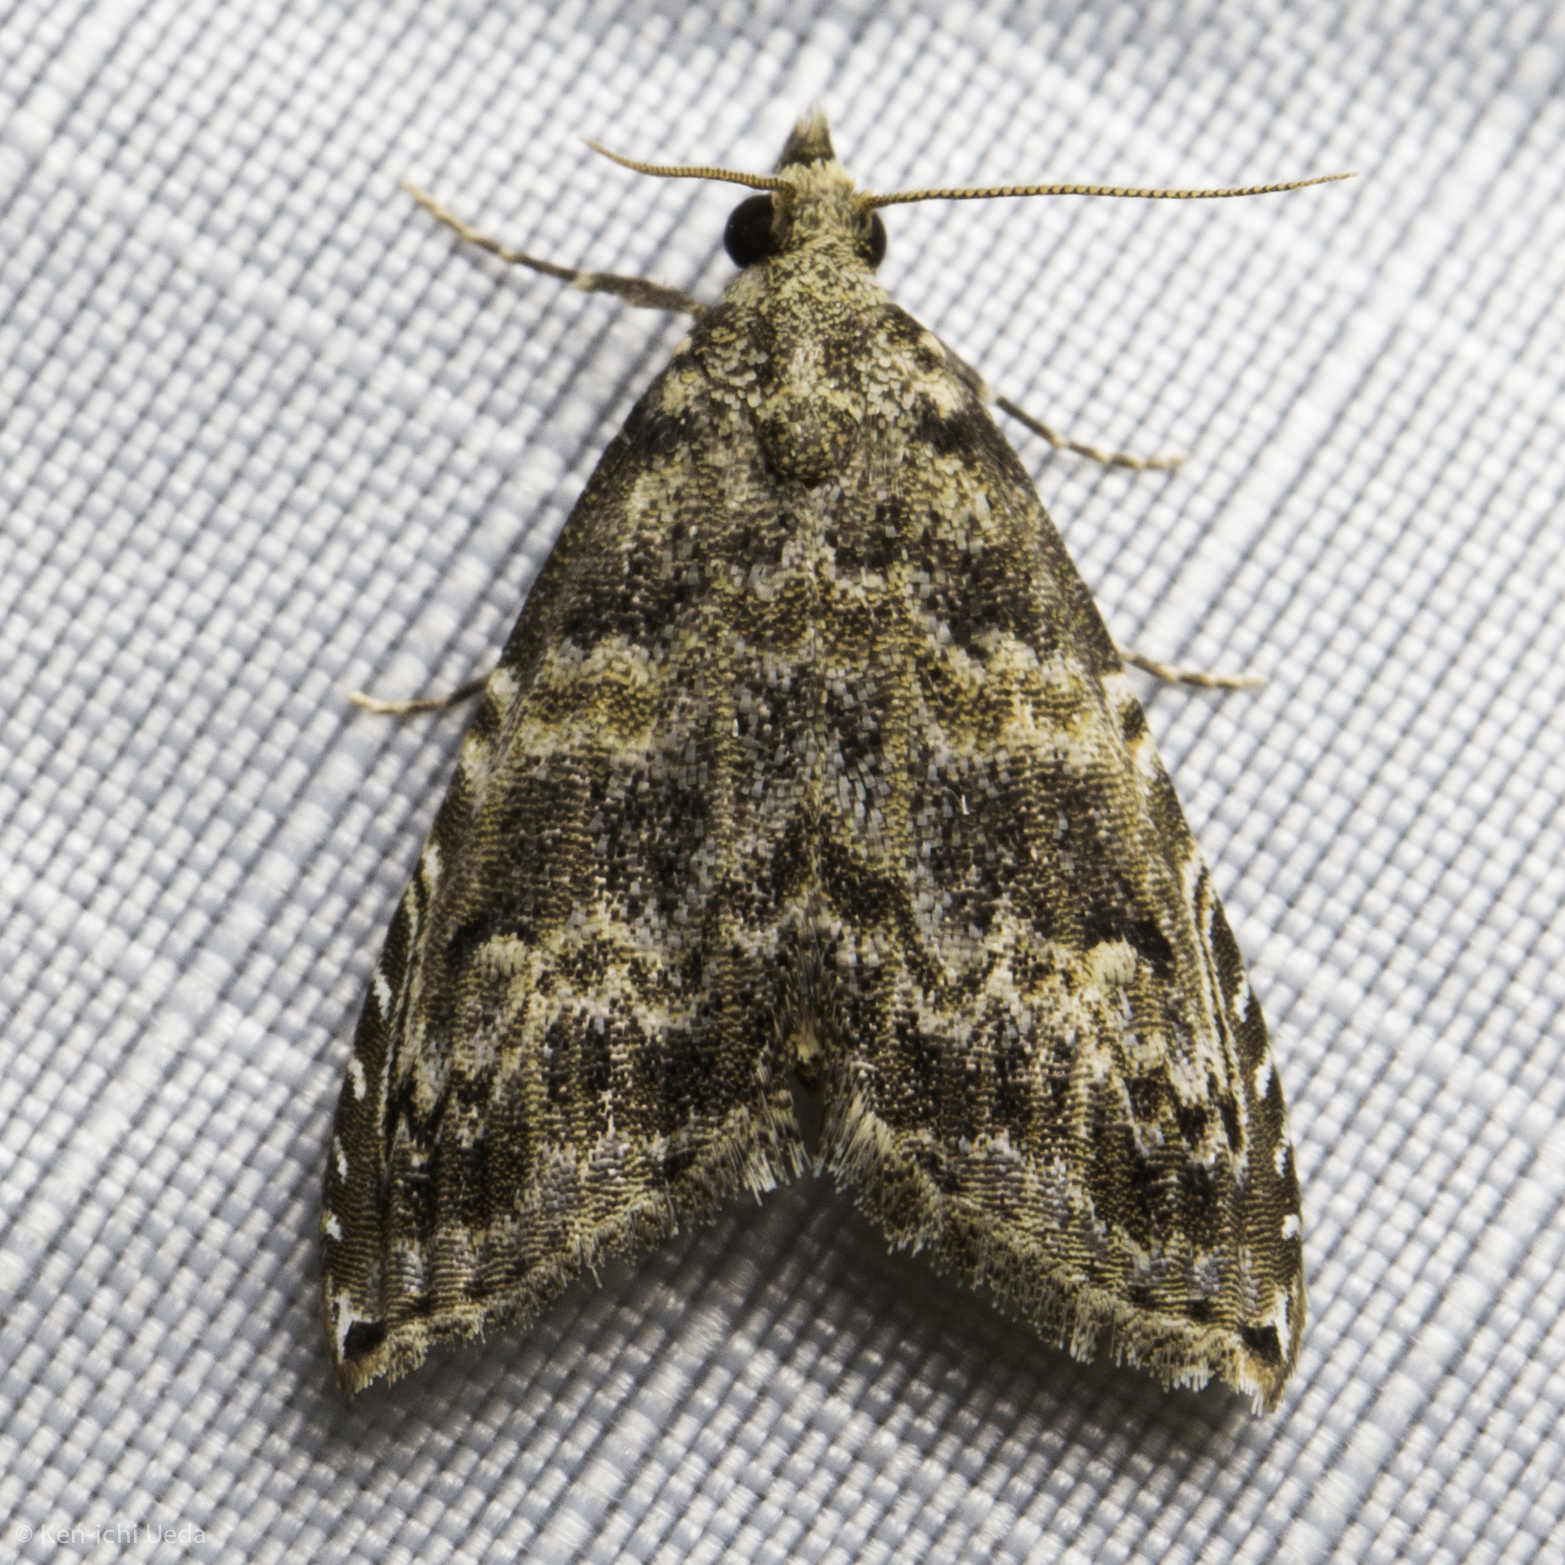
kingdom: Animalia
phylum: Arthropoda
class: Insecta
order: Lepidoptera
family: Noctuidae
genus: Phobolosia
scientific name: Phobolosia anfracta
